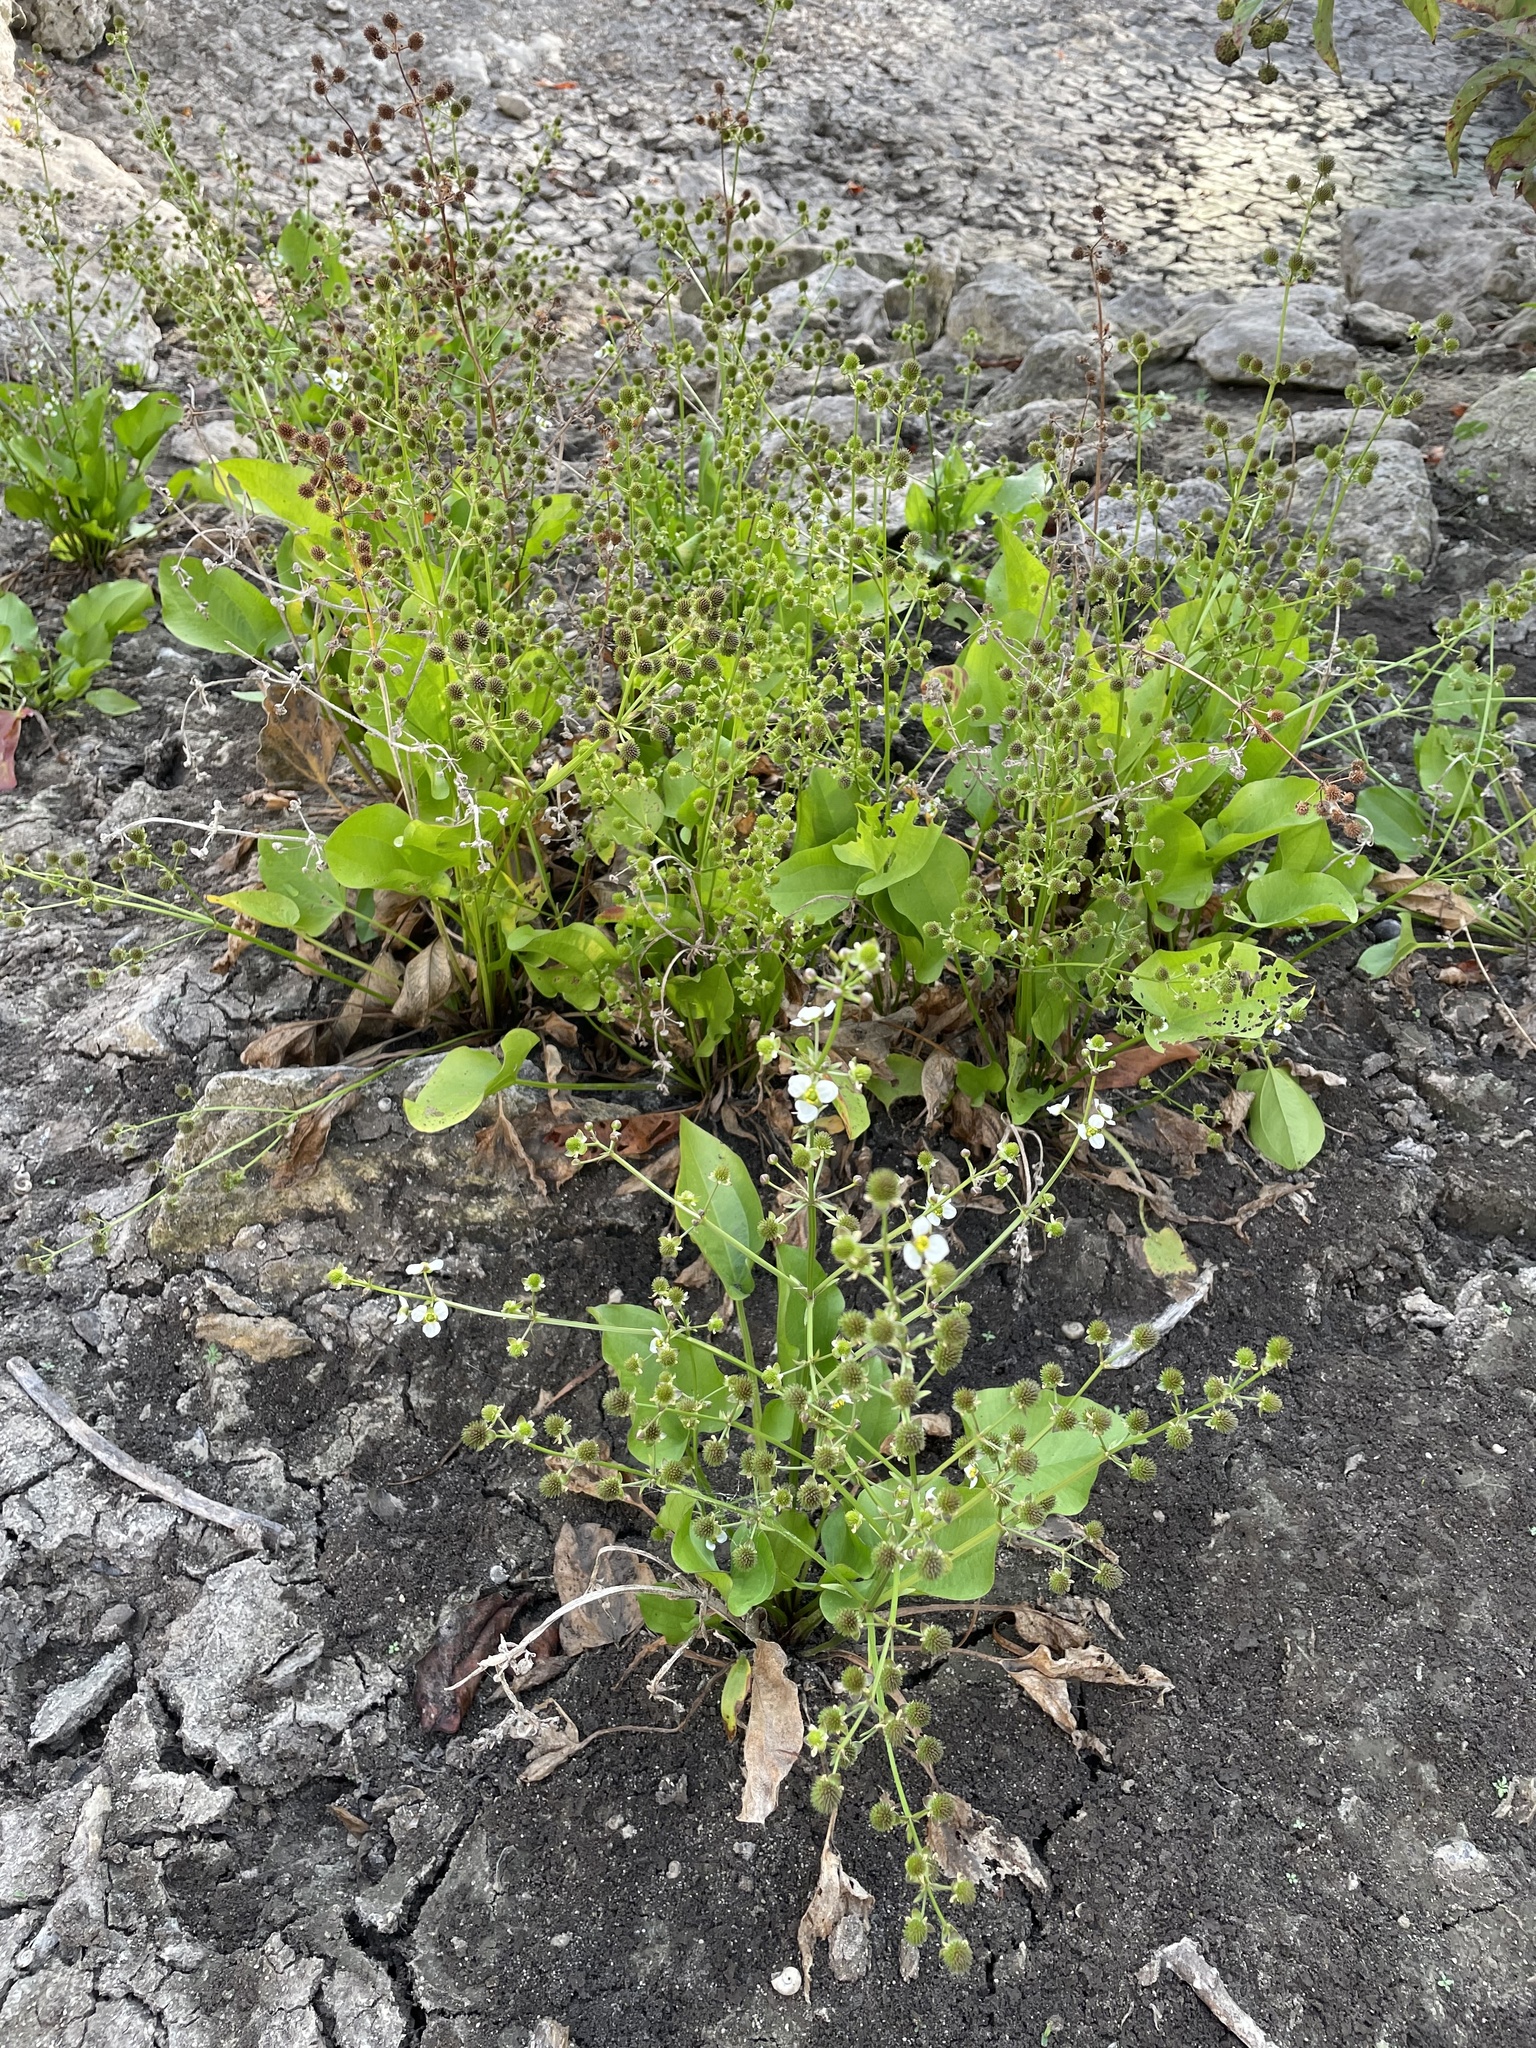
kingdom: Plantae
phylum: Tracheophyta
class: Liliopsida
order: Alismatales
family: Alismataceae
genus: Echinodorus
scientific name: Echinodorus berteroi
